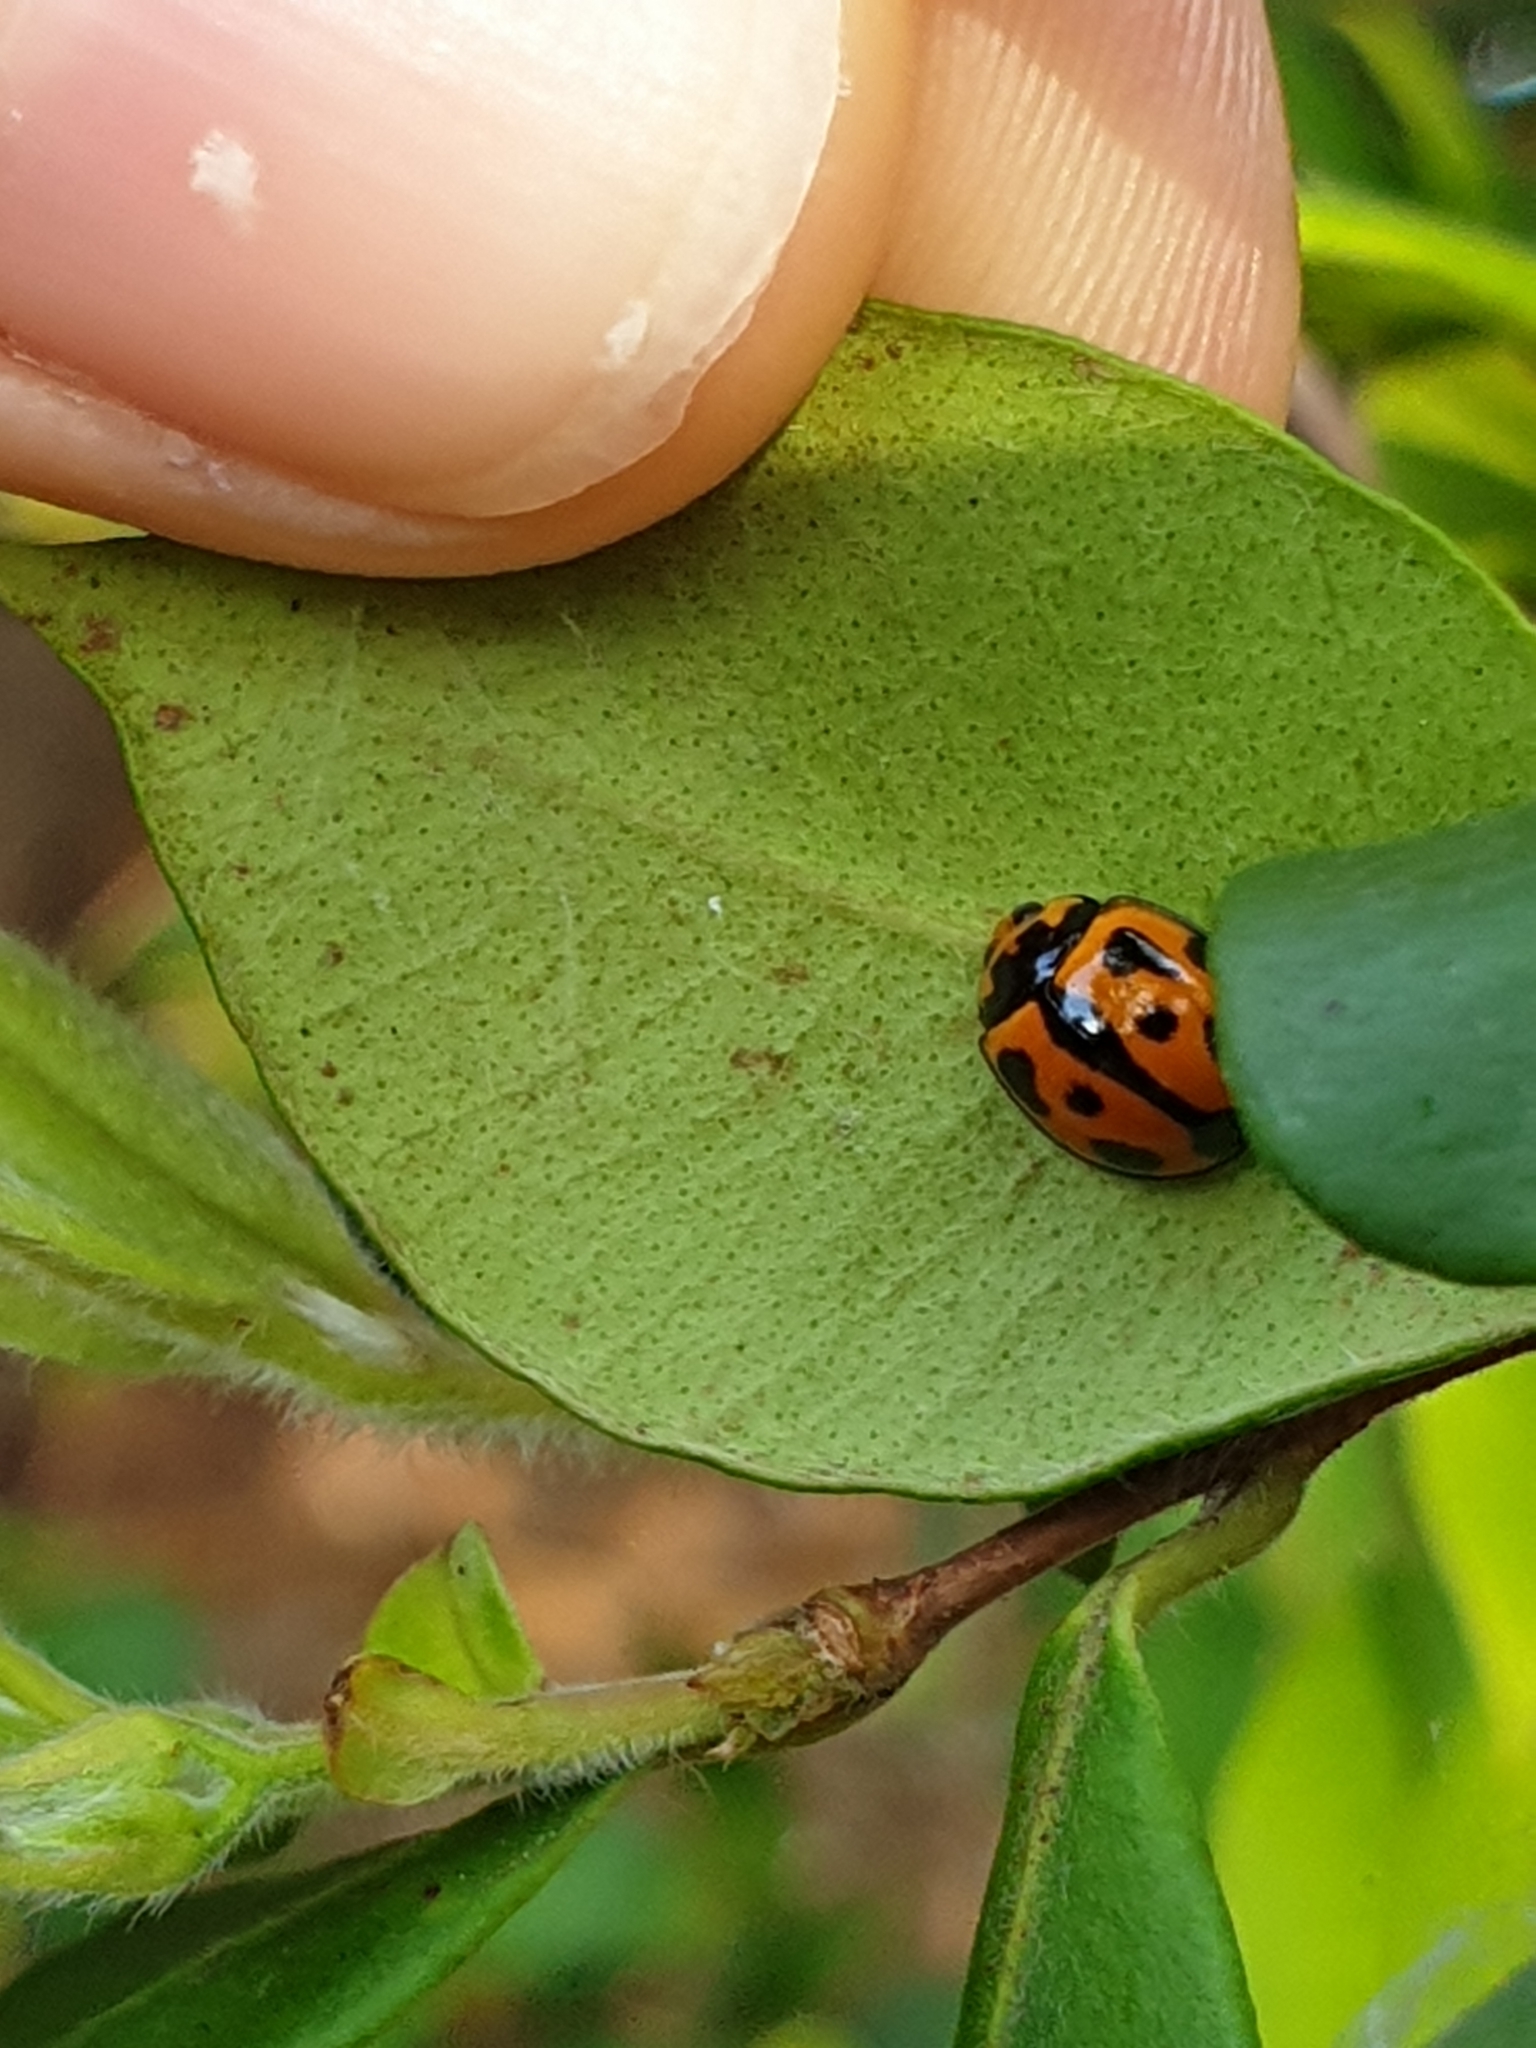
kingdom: Animalia
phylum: Arthropoda
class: Insecta
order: Coleoptera
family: Coccinellidae
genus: Coelophora
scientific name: Coelophora inaequalis
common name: Common australian lady beetle
